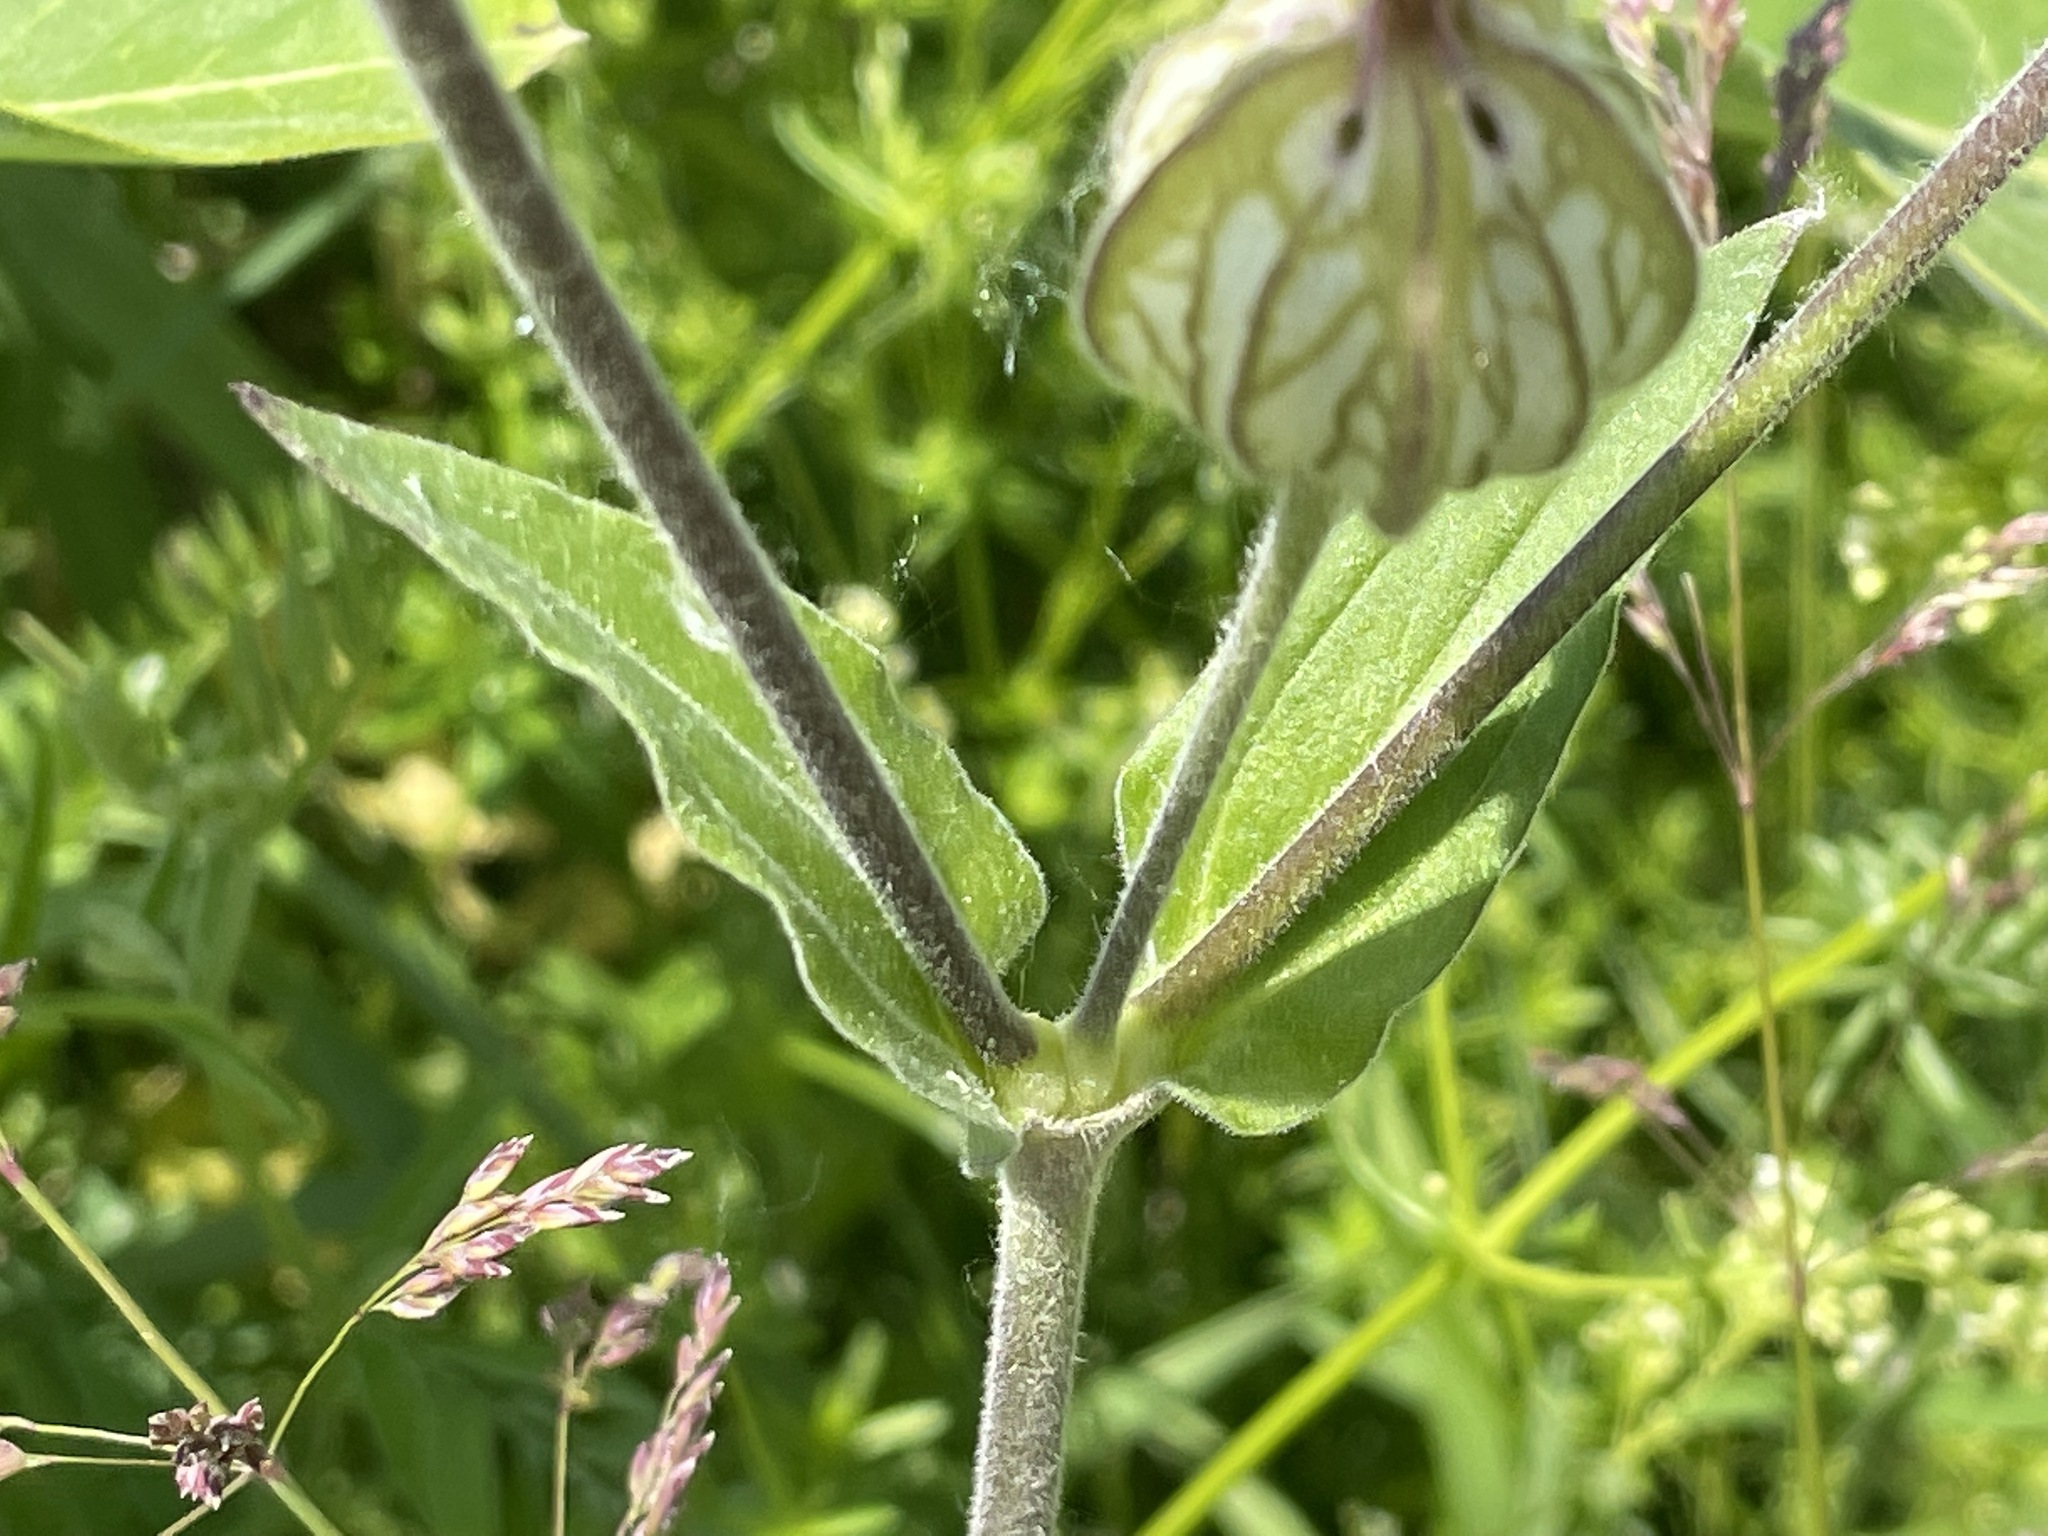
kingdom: Plantae
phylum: Tracheophyta
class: Magnoliopsida
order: Caryophyllales
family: Caryophyllaceae
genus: Silene
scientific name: Silene latifolia
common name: White campion
